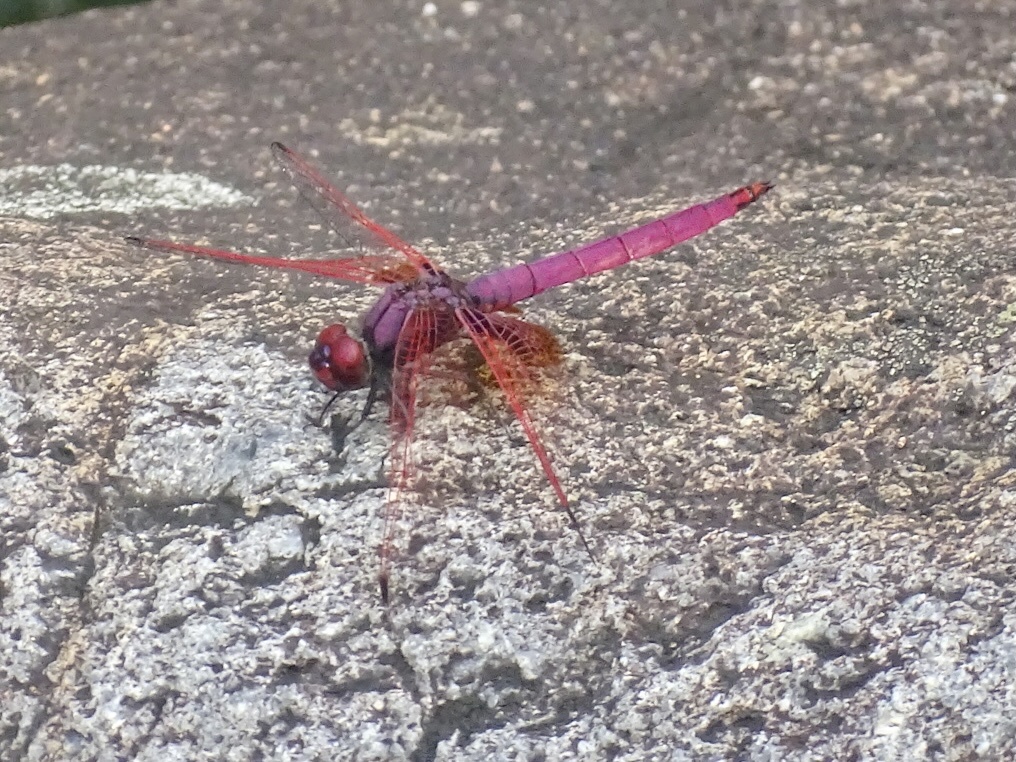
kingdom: Animalia
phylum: Arthropoda
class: Insecta
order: Odonata
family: Libellulidae
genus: Trithemis
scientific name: Trithemis aurora
